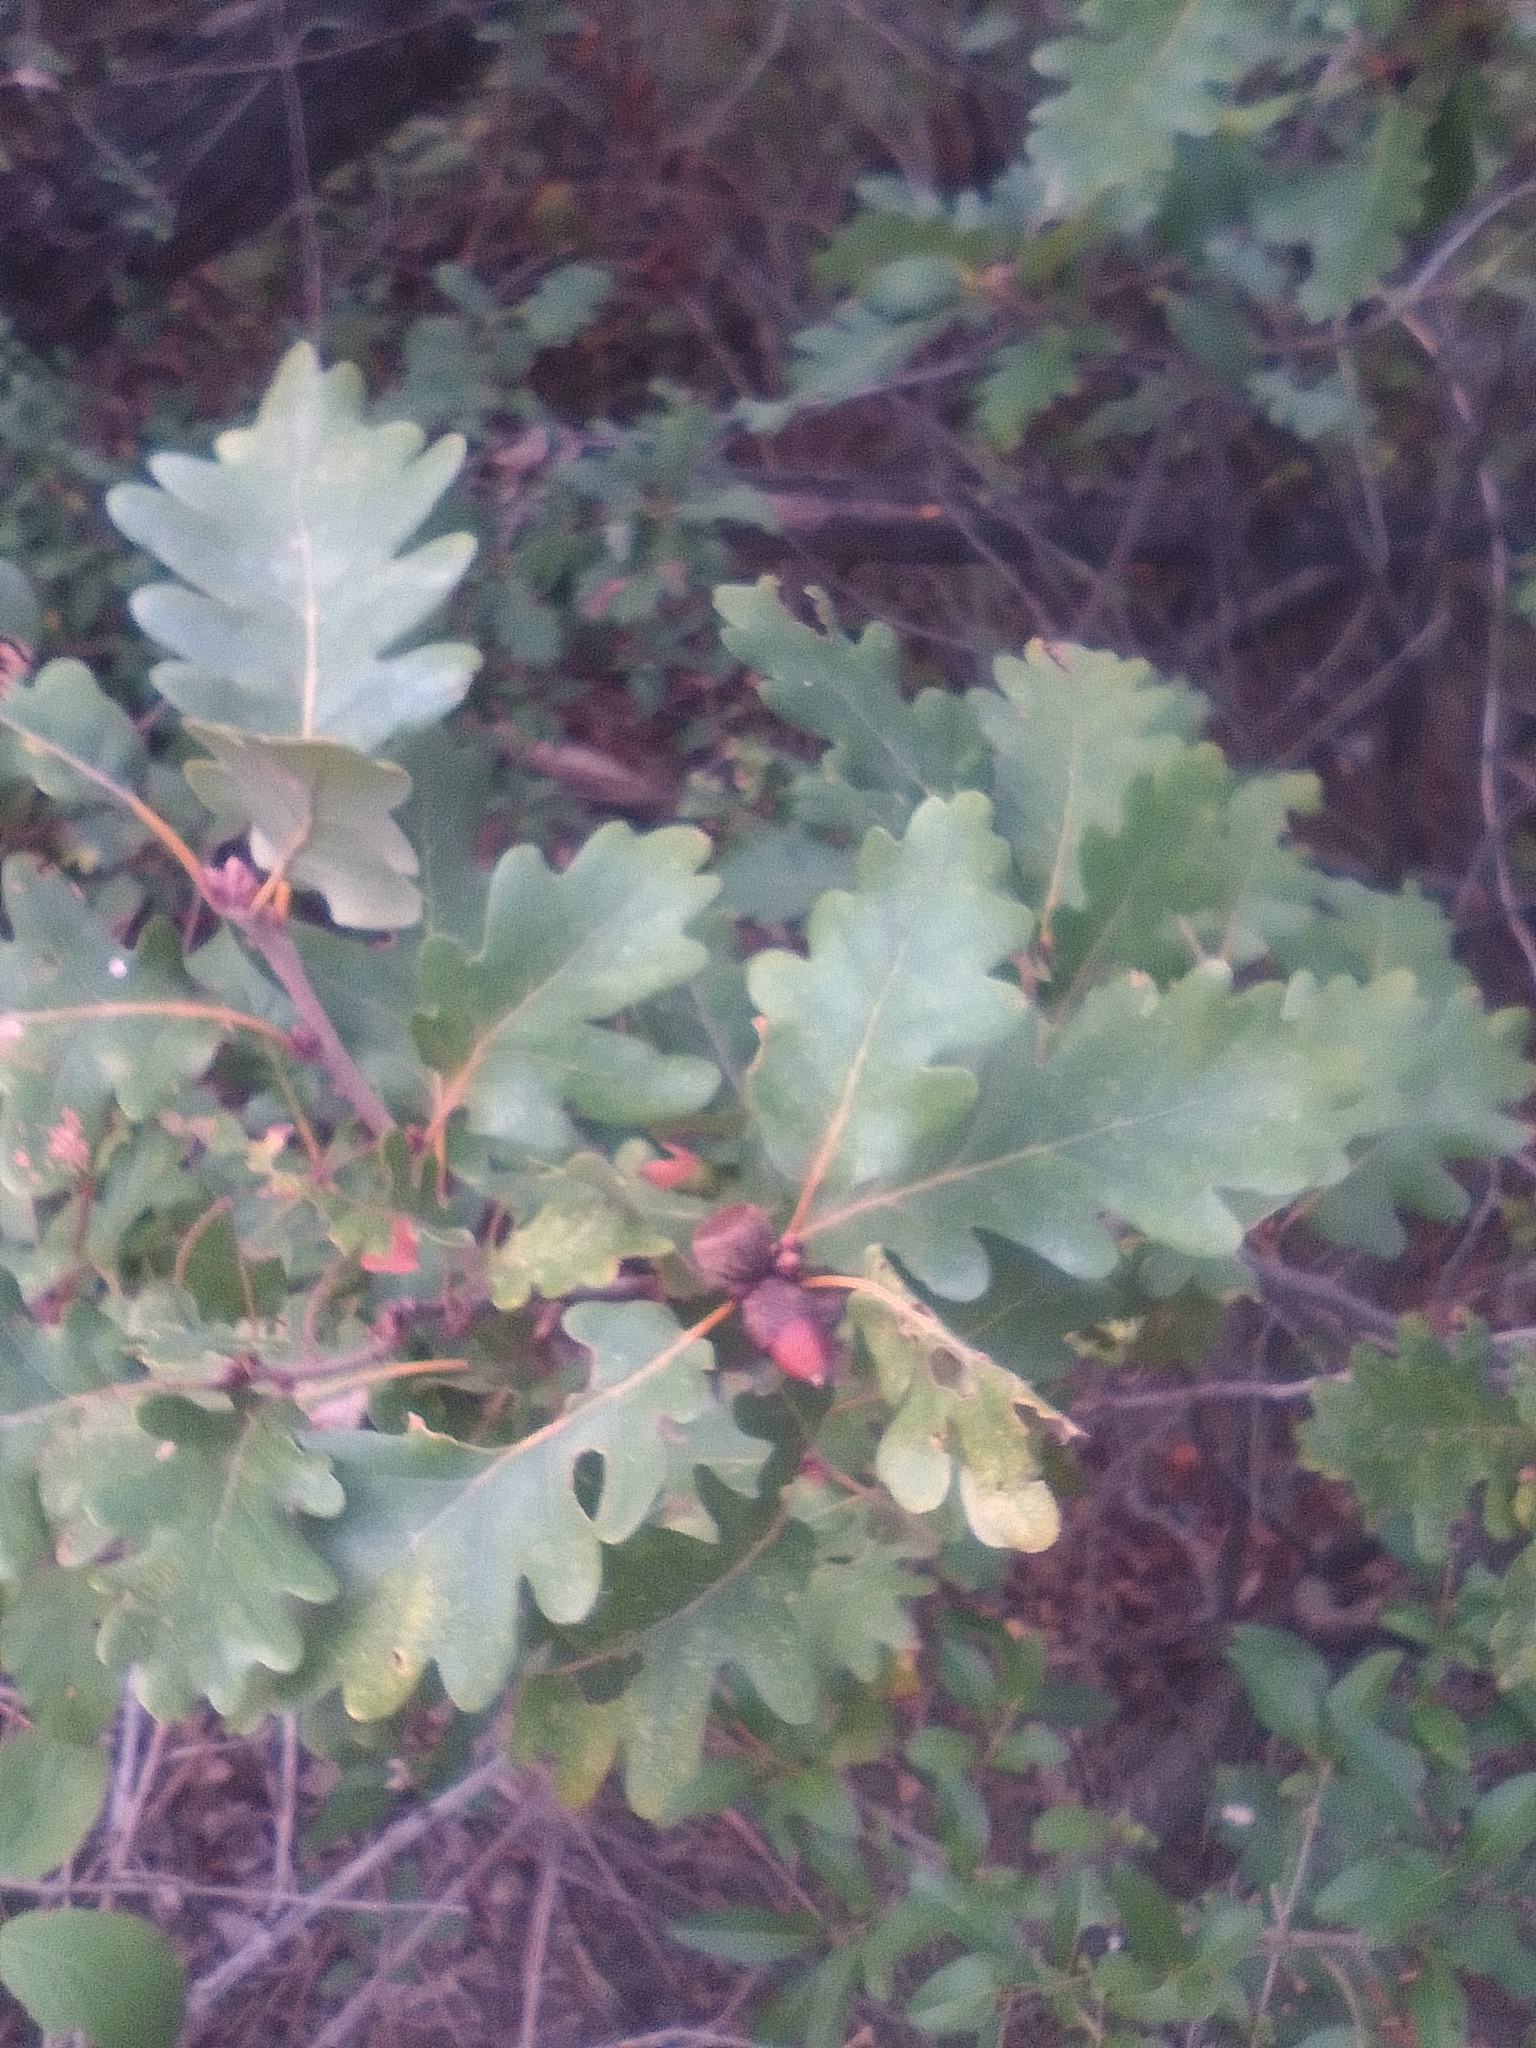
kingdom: Plantae
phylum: Tracheophyta
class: Magnoliopsida
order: Fagales
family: Fagaceae
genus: Quercus
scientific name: Quercus pubescens
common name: Downy oak
